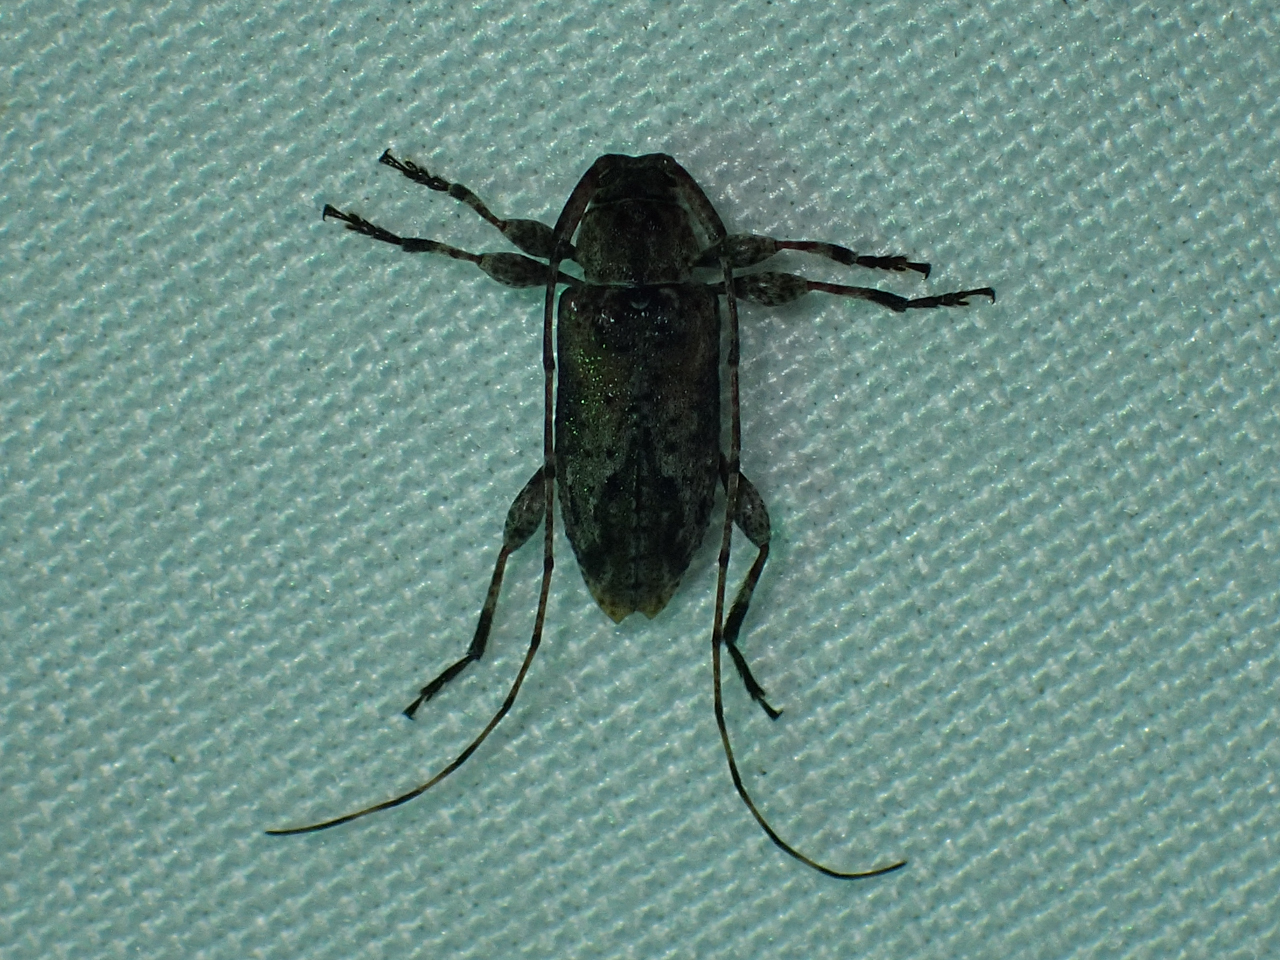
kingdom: Animalia
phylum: Arthropoda
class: Insecta
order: Coleoptera
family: Cerambycidae
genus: Astylidius
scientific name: Astylidius parvus
